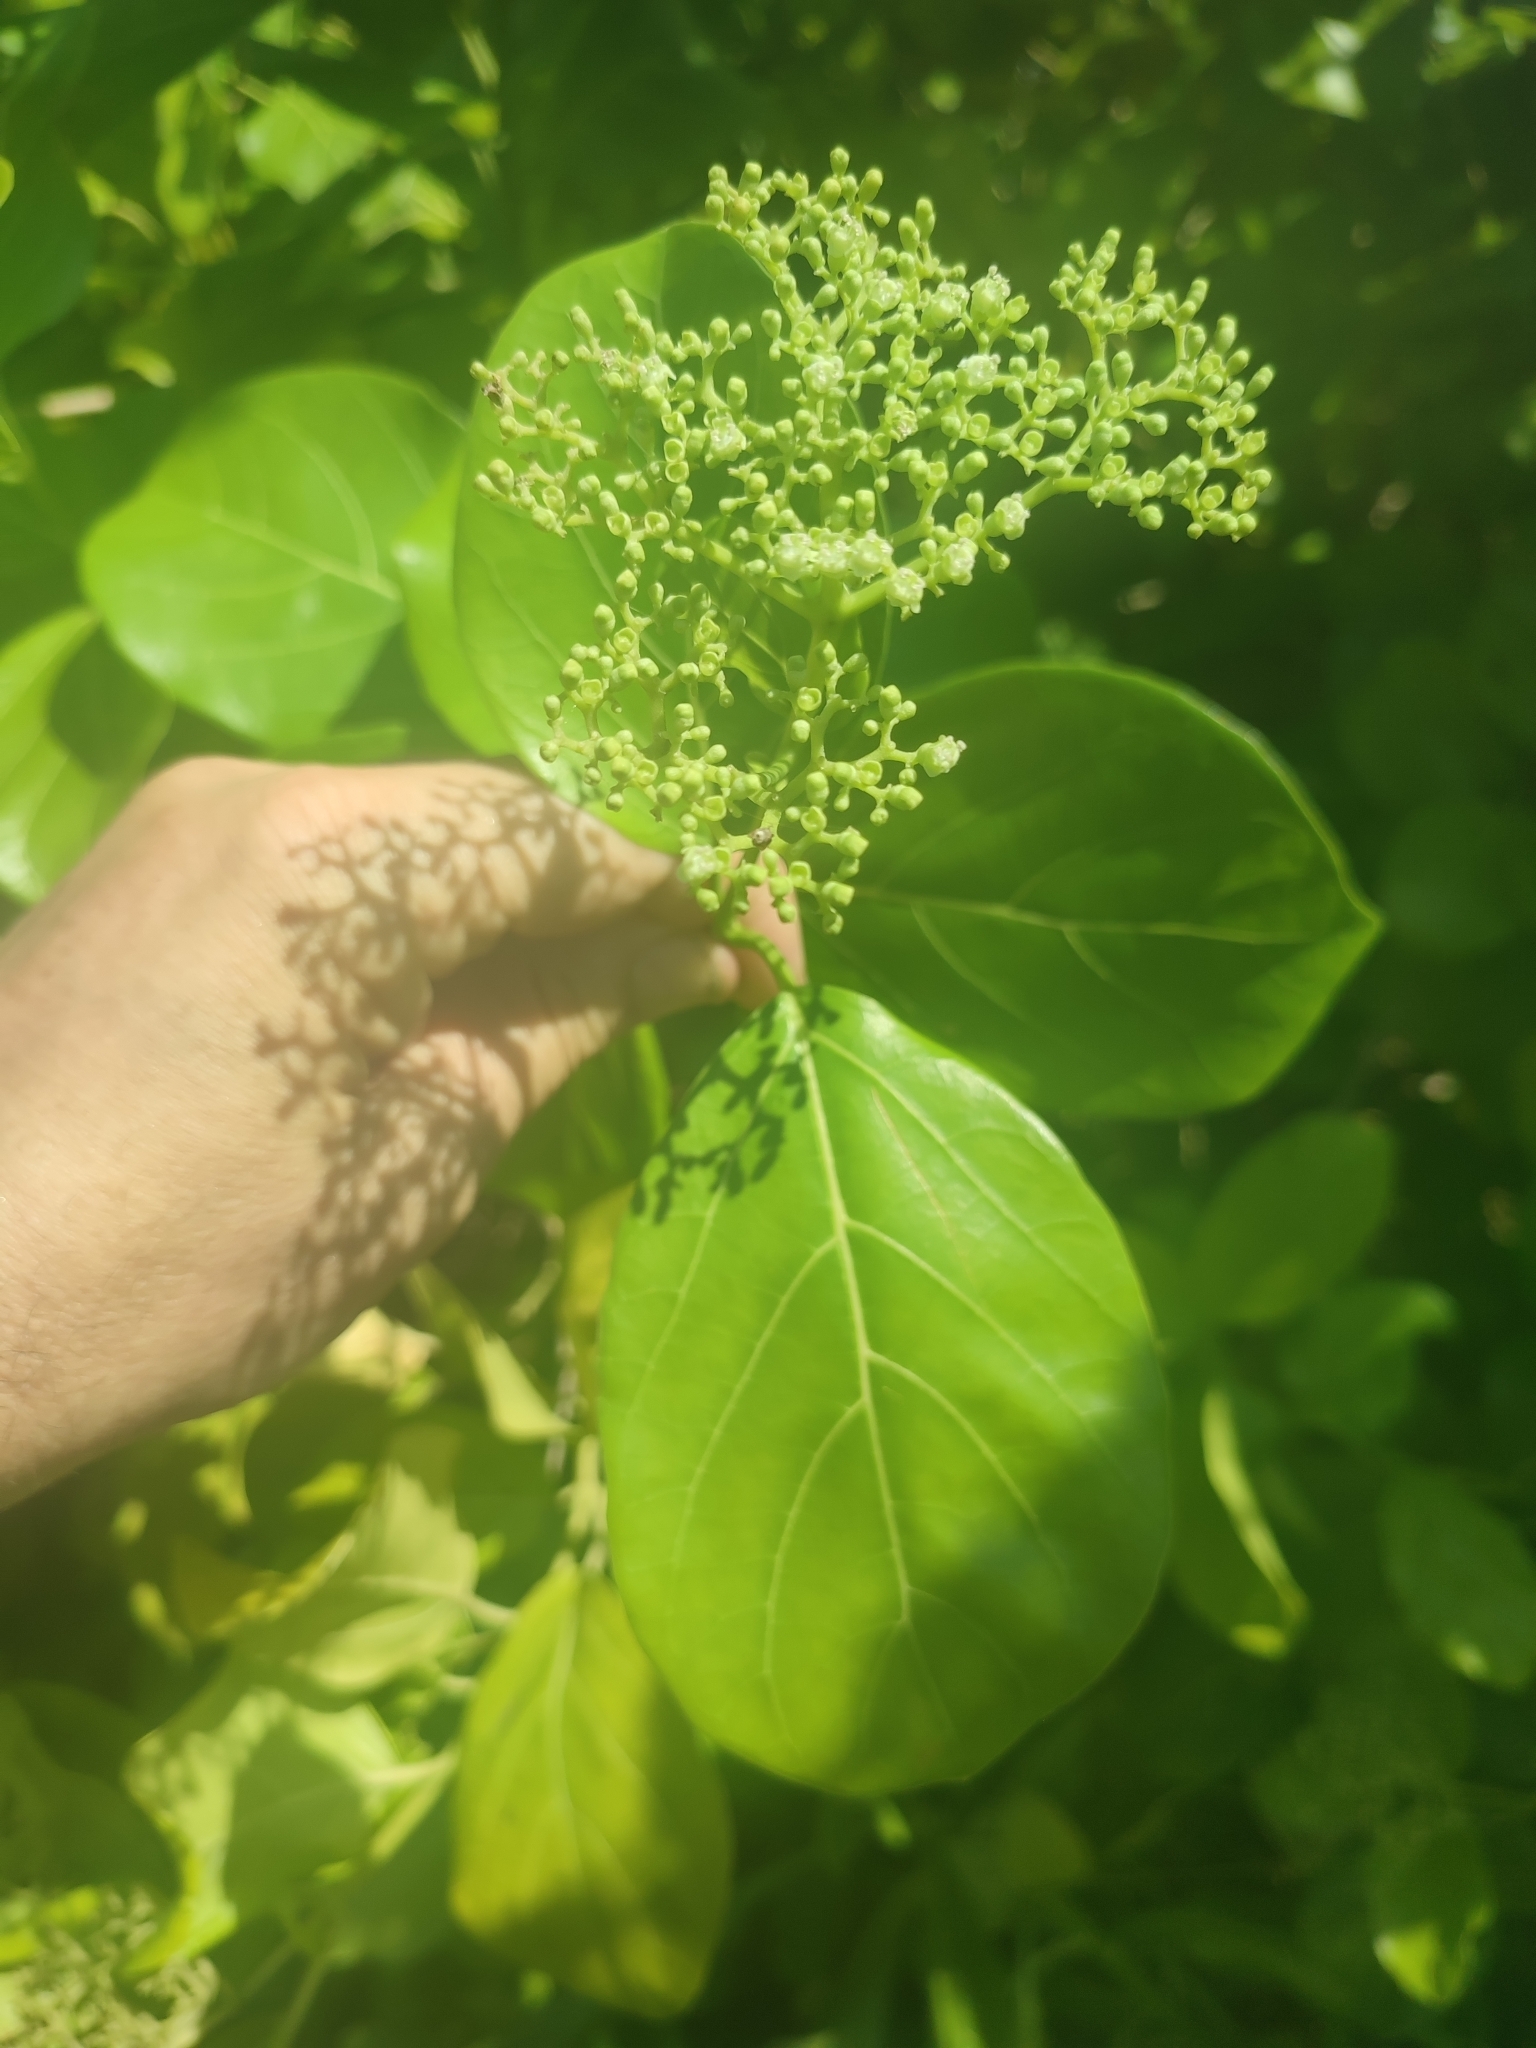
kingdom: Plantae
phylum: Tracheophyta
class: Magnoliopsida
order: Lamiales
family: Lamiaceae
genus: Premna
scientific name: Premna serratifolia
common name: Bastard guelder
